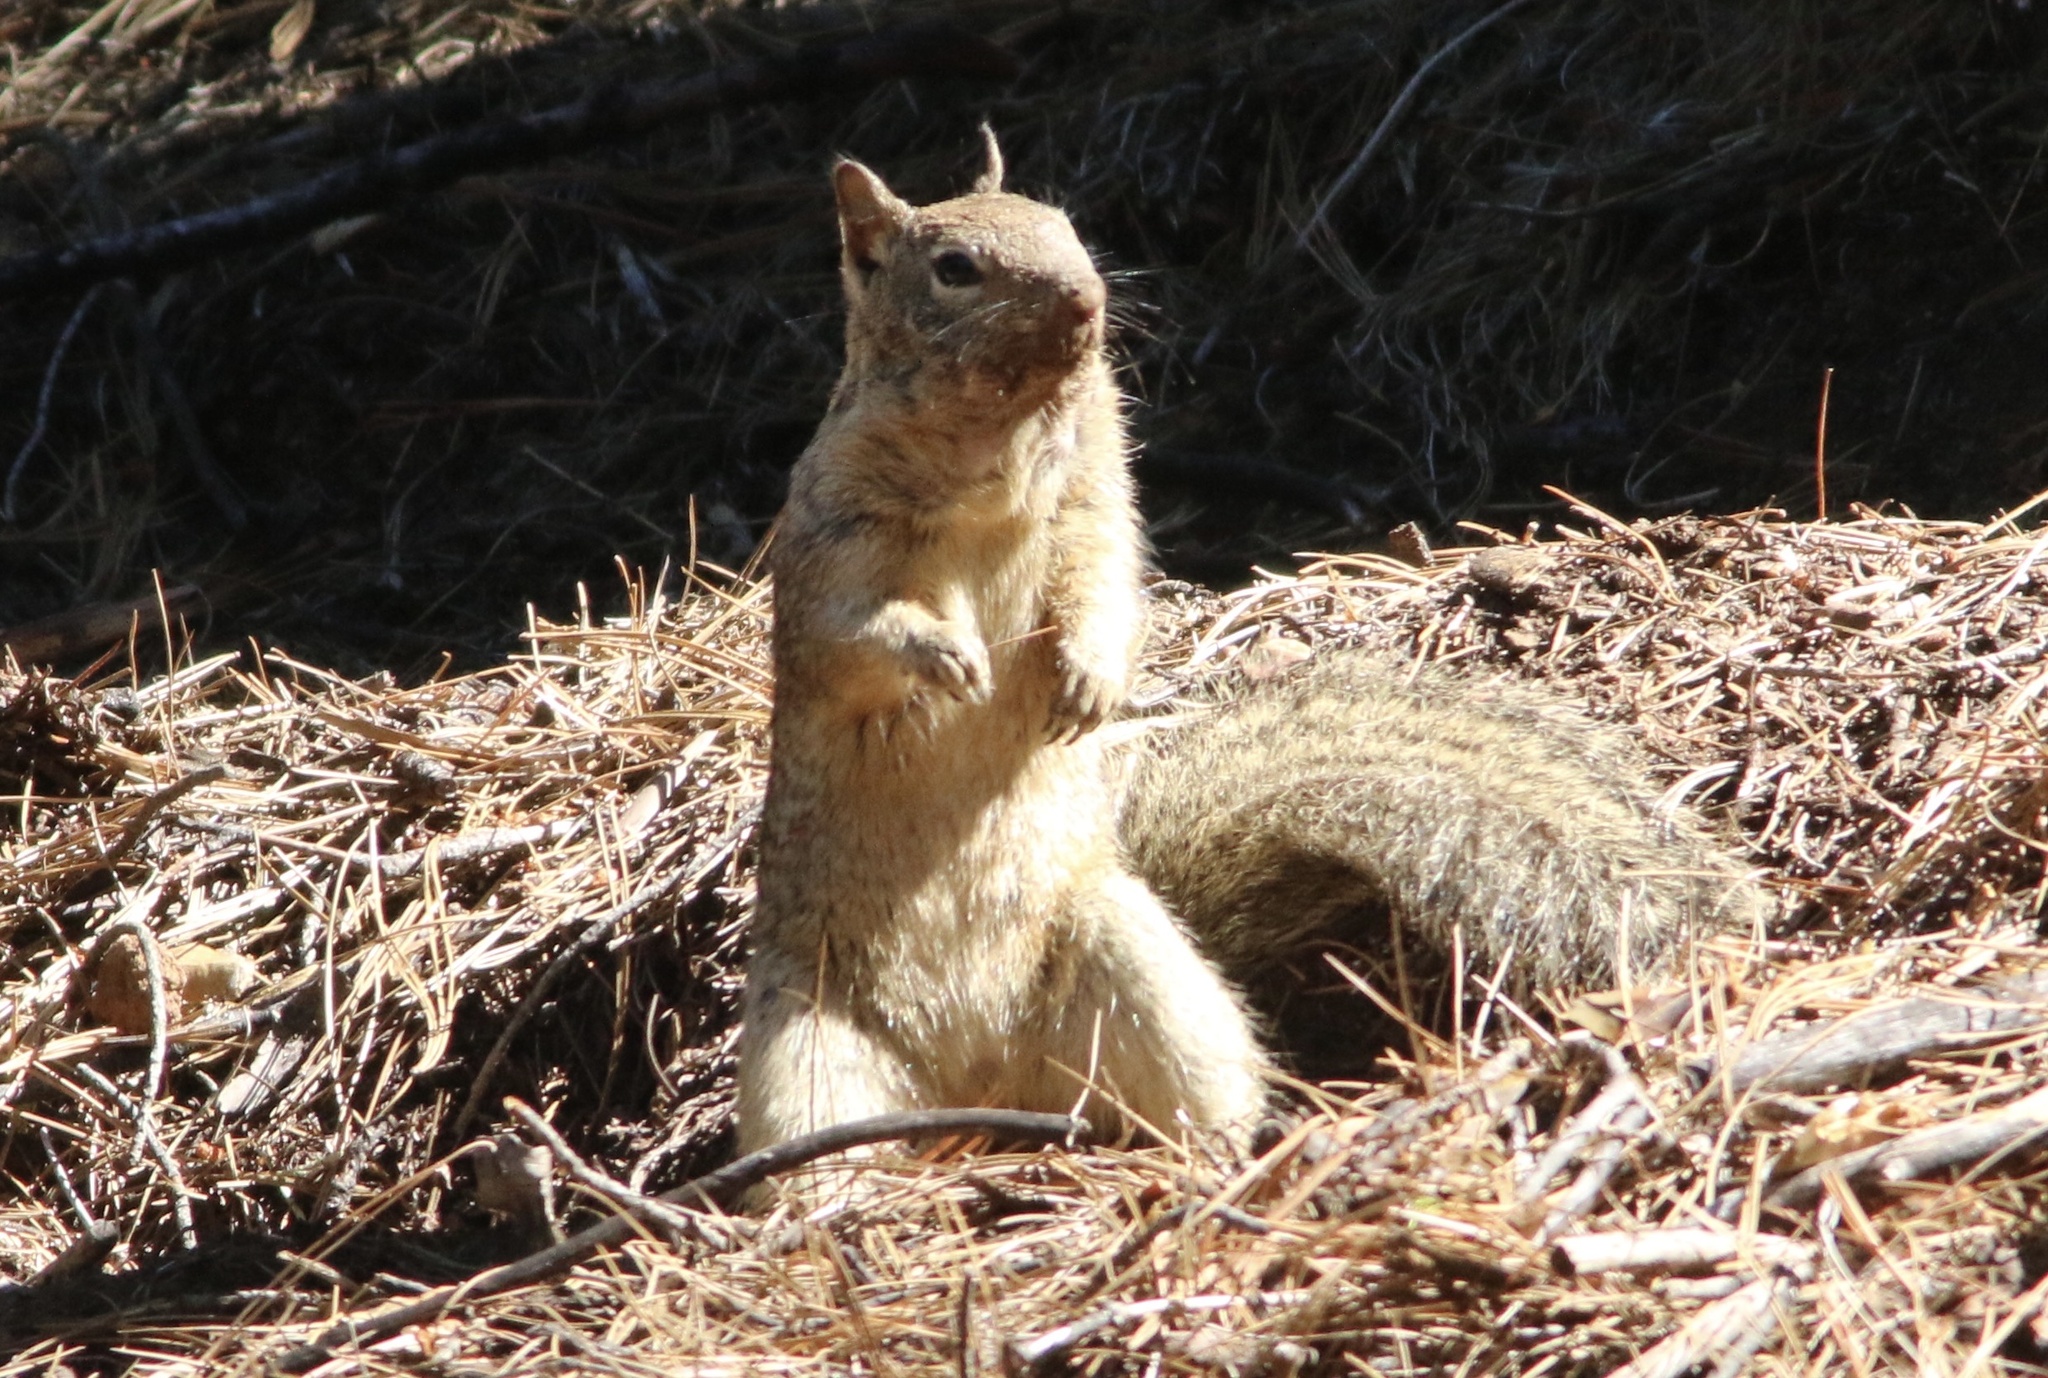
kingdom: Animalia
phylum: Chordata
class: Mammalia
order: Rodentia
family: Sciuridae
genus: Otospermophilus
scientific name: Otospermophilus beecheyi
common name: California ground squirrel
